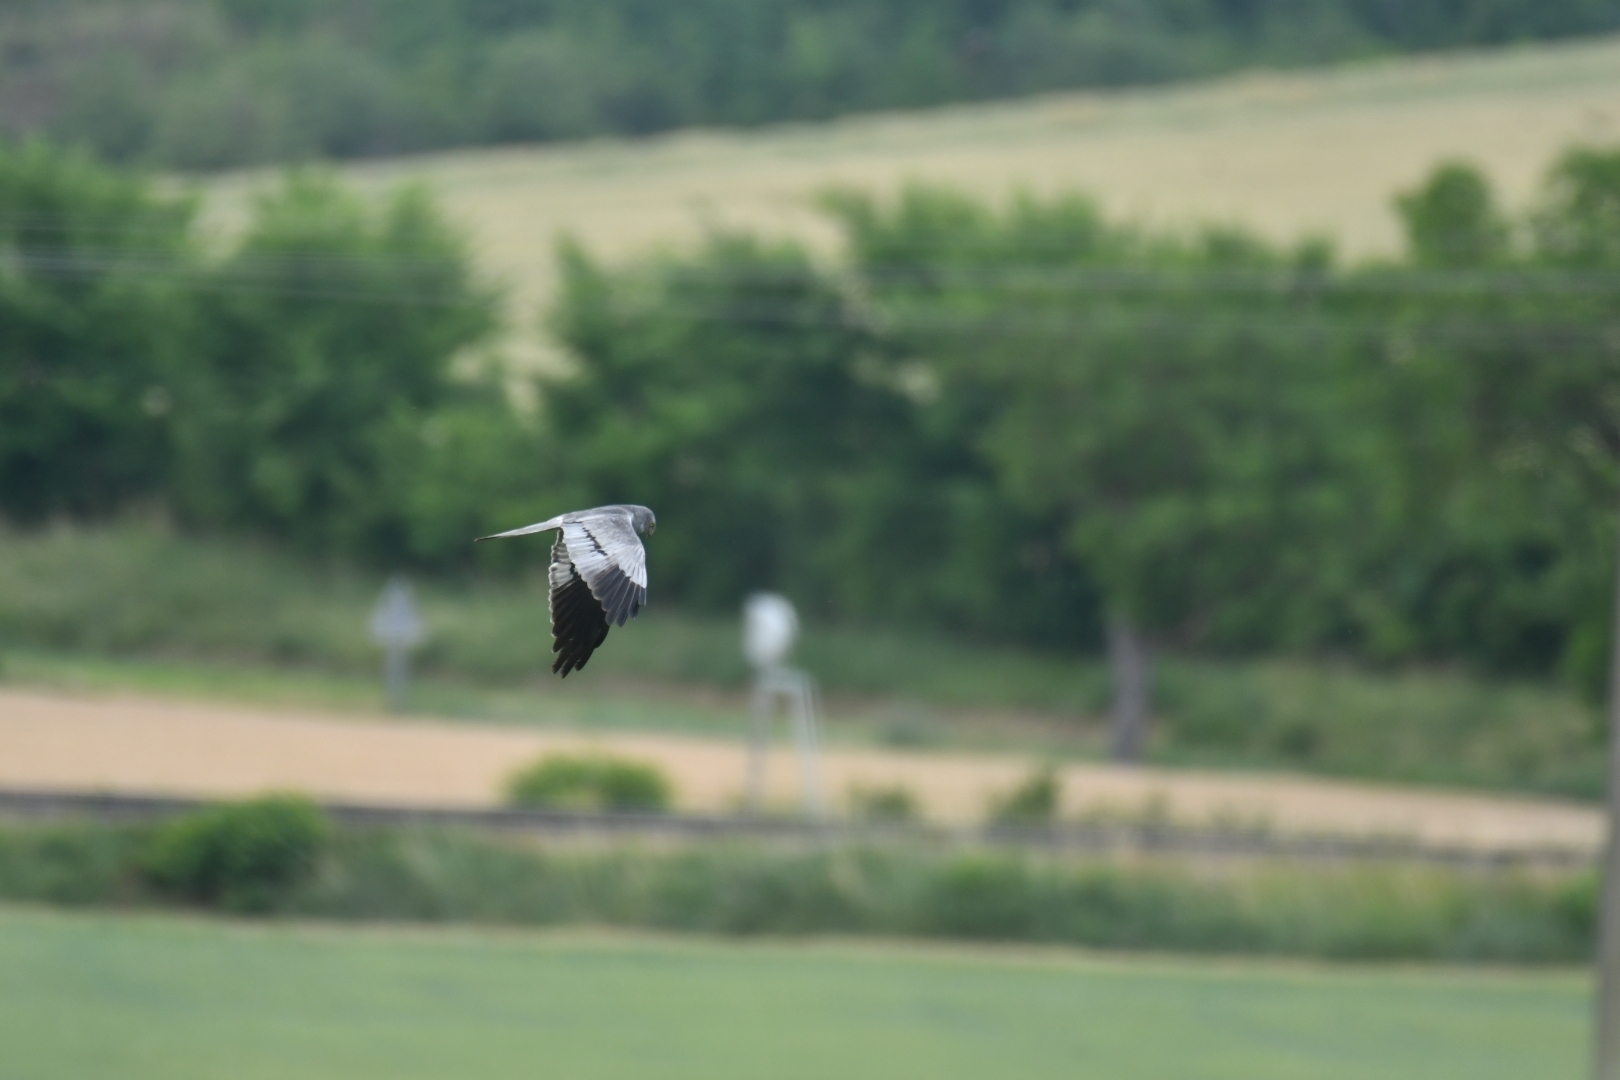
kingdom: Animalia
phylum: Chordata
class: Aves
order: Accipitriformes
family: Accipitridae
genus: Circus
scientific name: Circus pygargus
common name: Montagu's harrier
